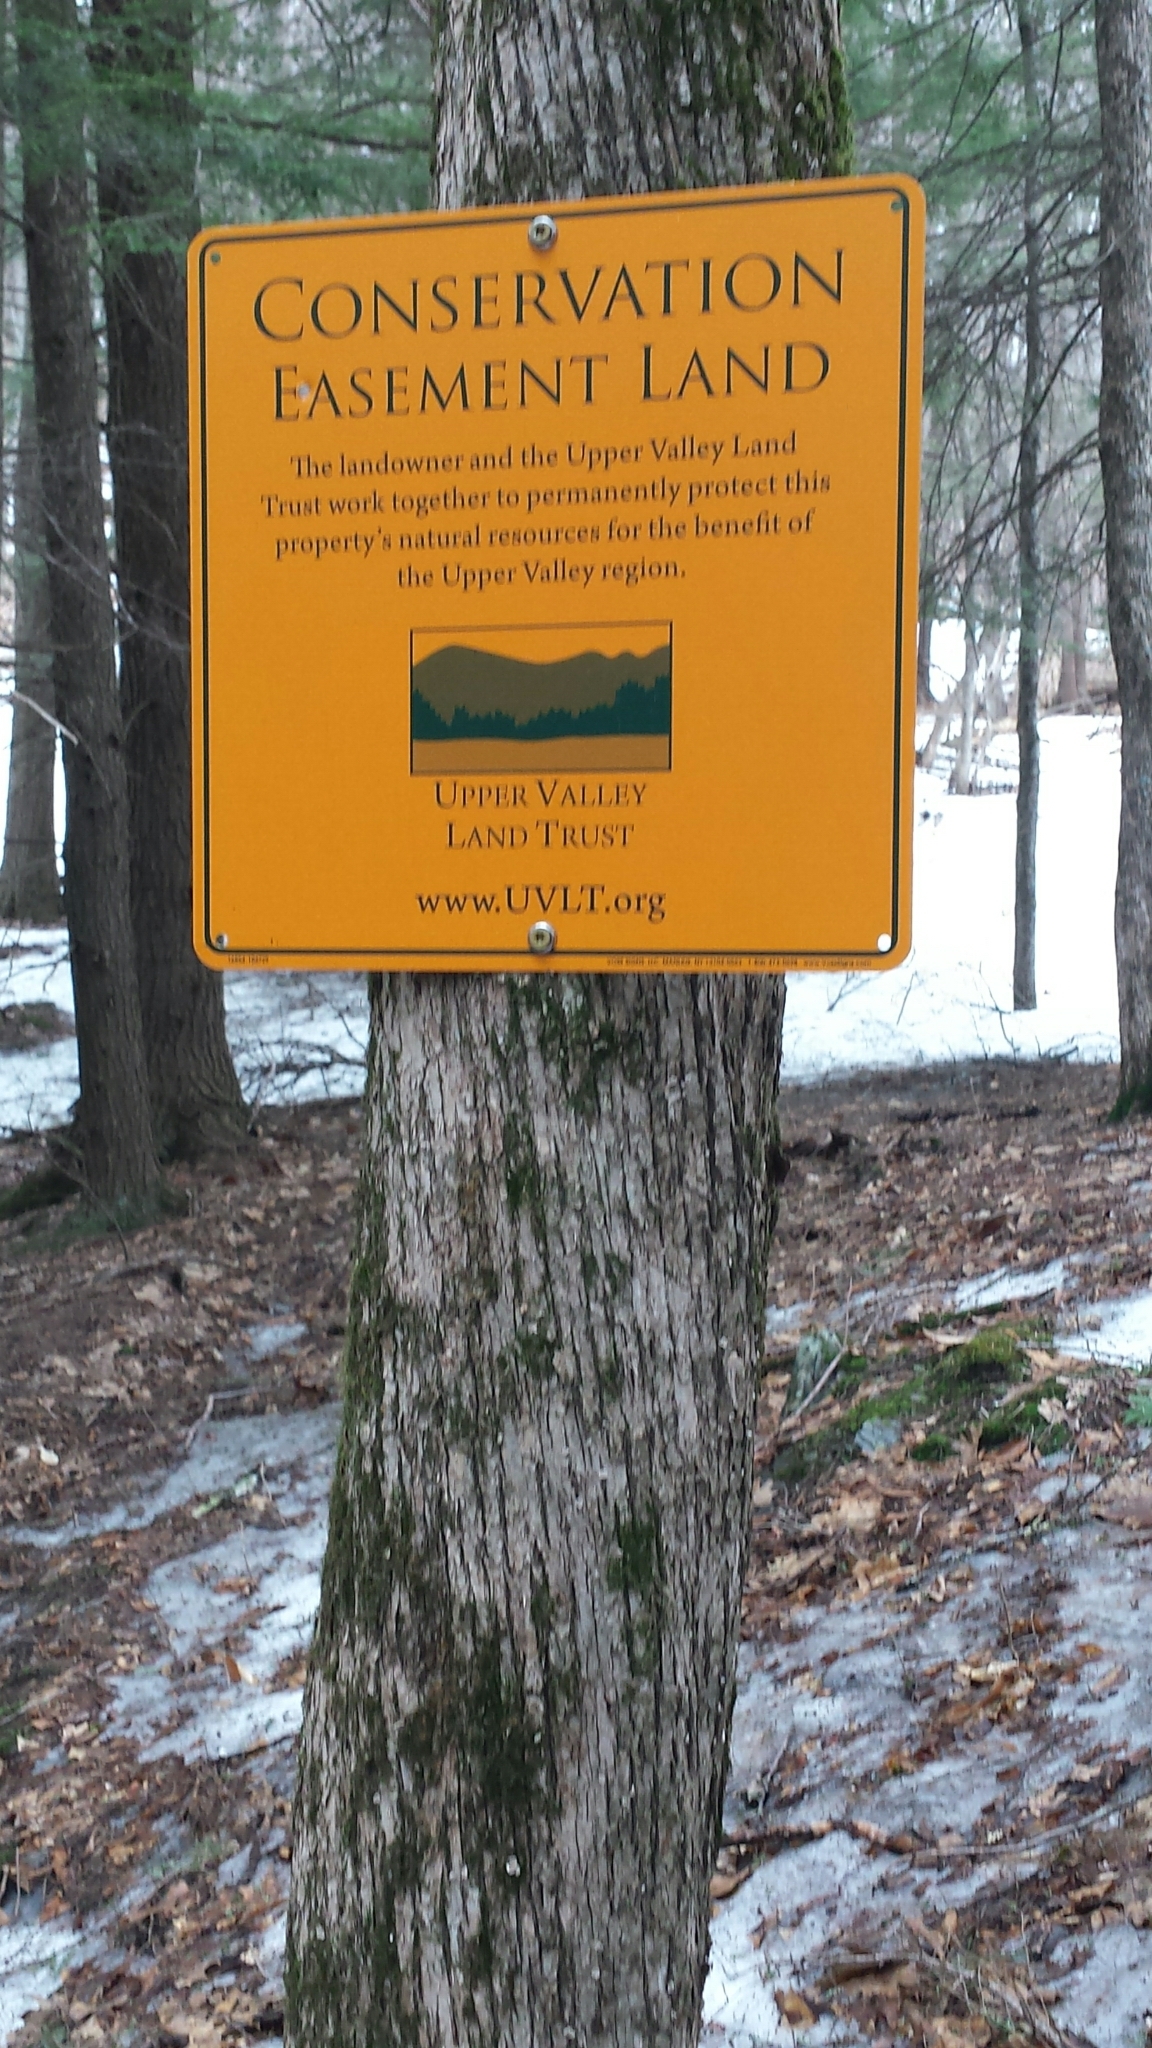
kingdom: Plantae
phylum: Tracheophyta
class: Magnoliopsida
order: Fagales
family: Betulaceae
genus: Ostrya
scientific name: Ostrya virginiana
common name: Ironwood
